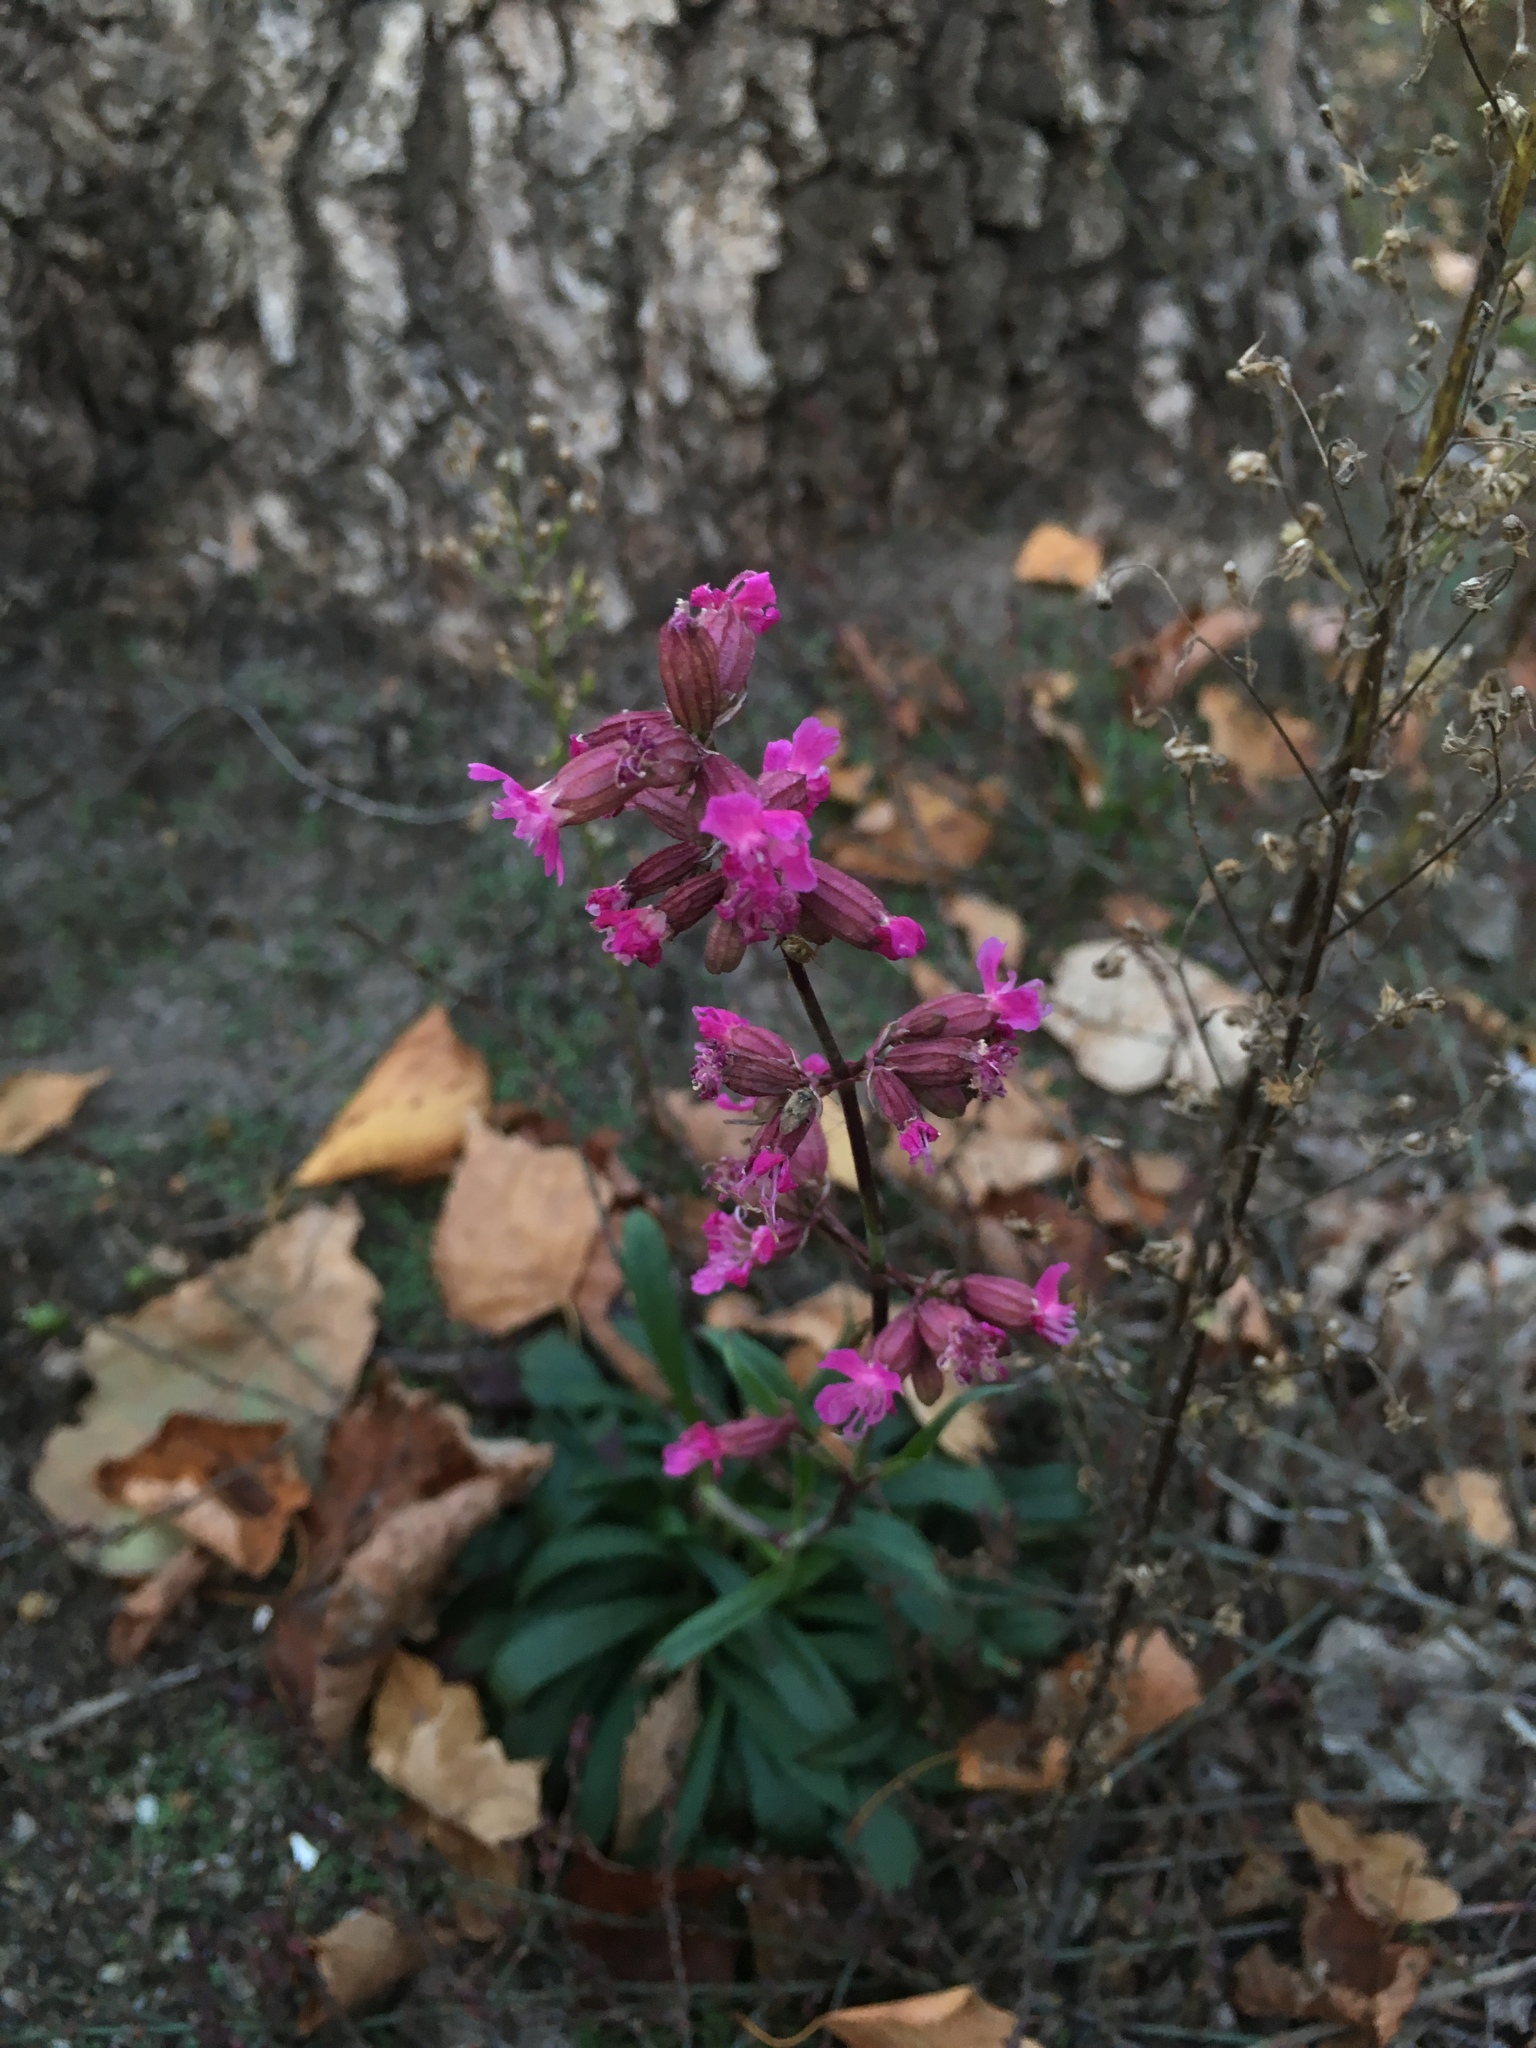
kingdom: Plantae
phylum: Tracheophyta
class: Magnoliopsida
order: Caryophyllales
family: Caryophyllaceae
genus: Viscaria
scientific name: Viscaria vulgaris
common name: Clammy campion
